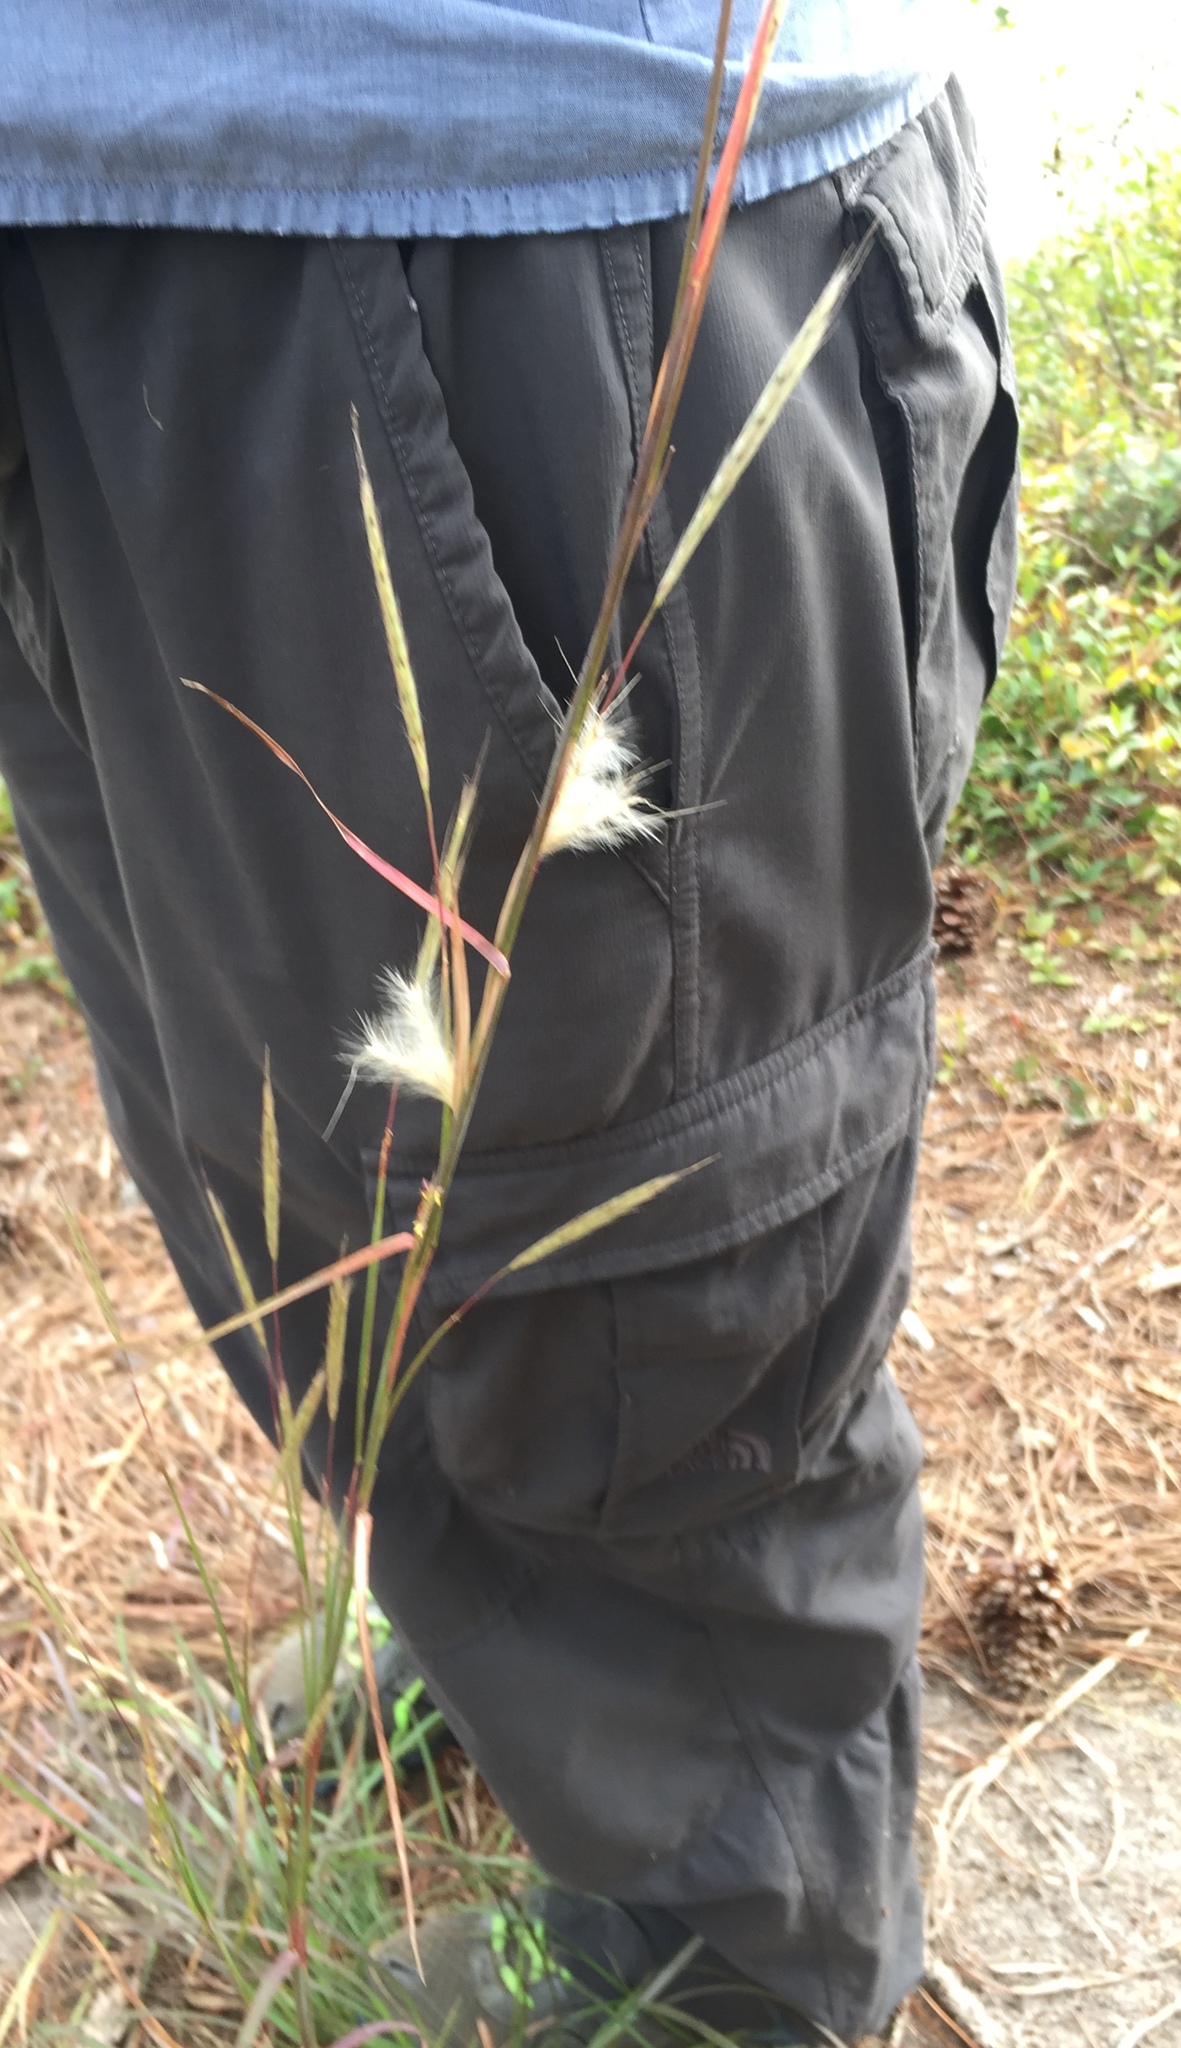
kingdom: Plantae
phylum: Tracheophyta
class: Liliopsida
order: Poales
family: Poaceae
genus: Andropogon
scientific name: Andropogon ternarius
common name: Split bluestem
